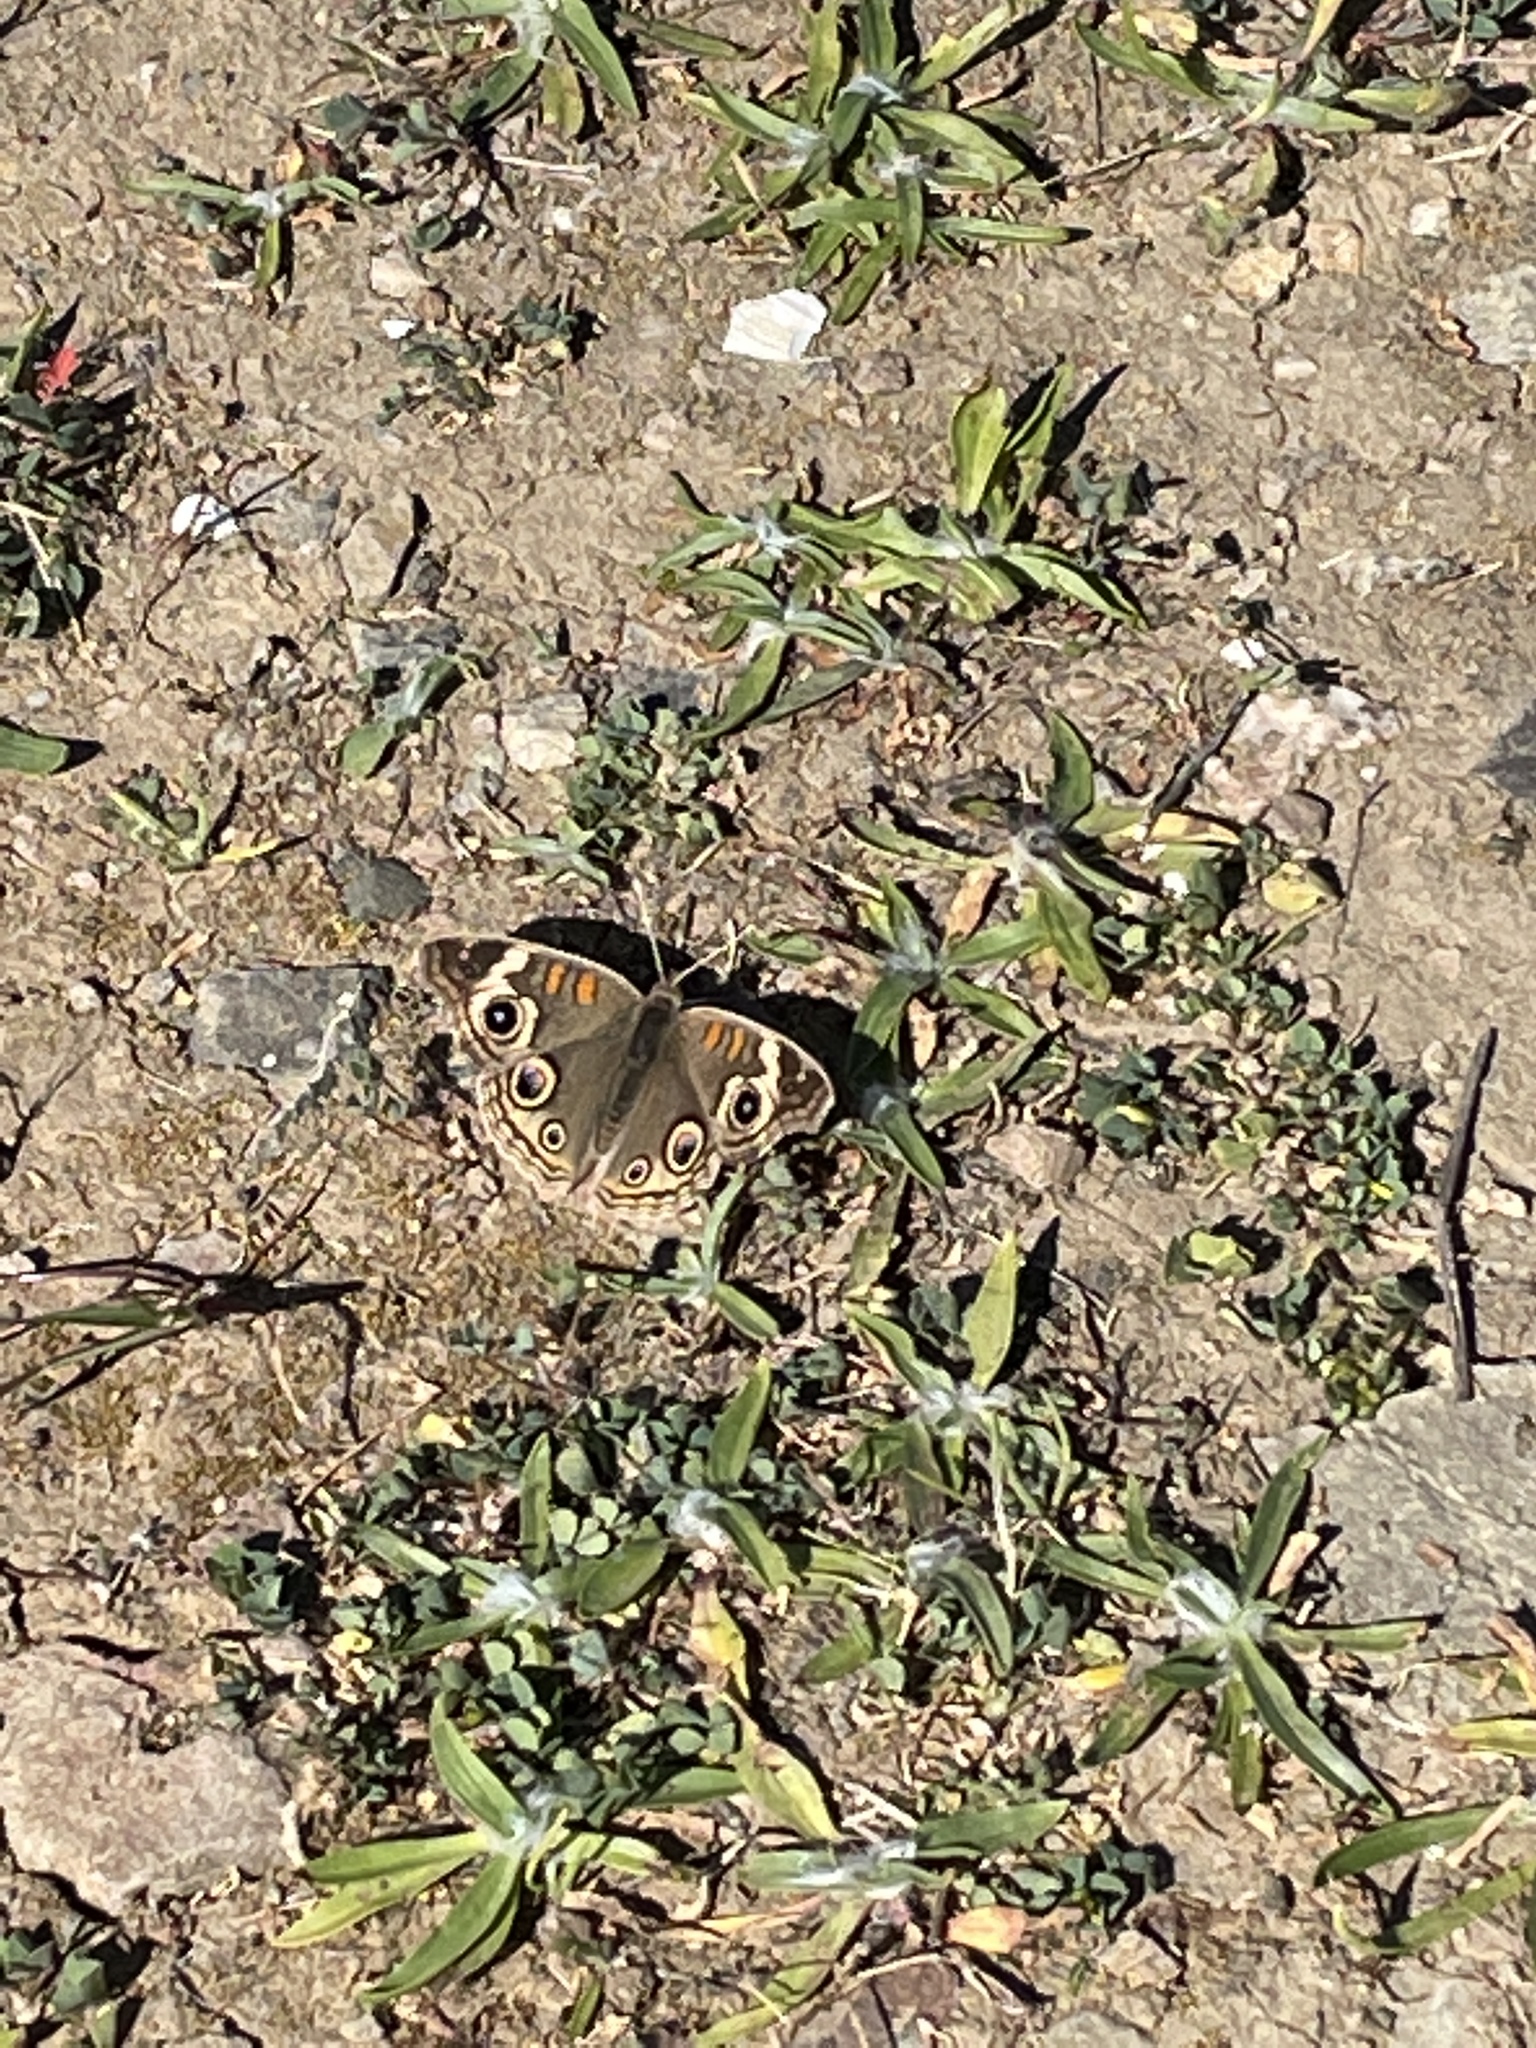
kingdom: Animalia
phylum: Arthropoda
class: Insecta
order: Lepidoptera
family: Nymphalidae
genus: Junonia
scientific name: Junonia grisea
